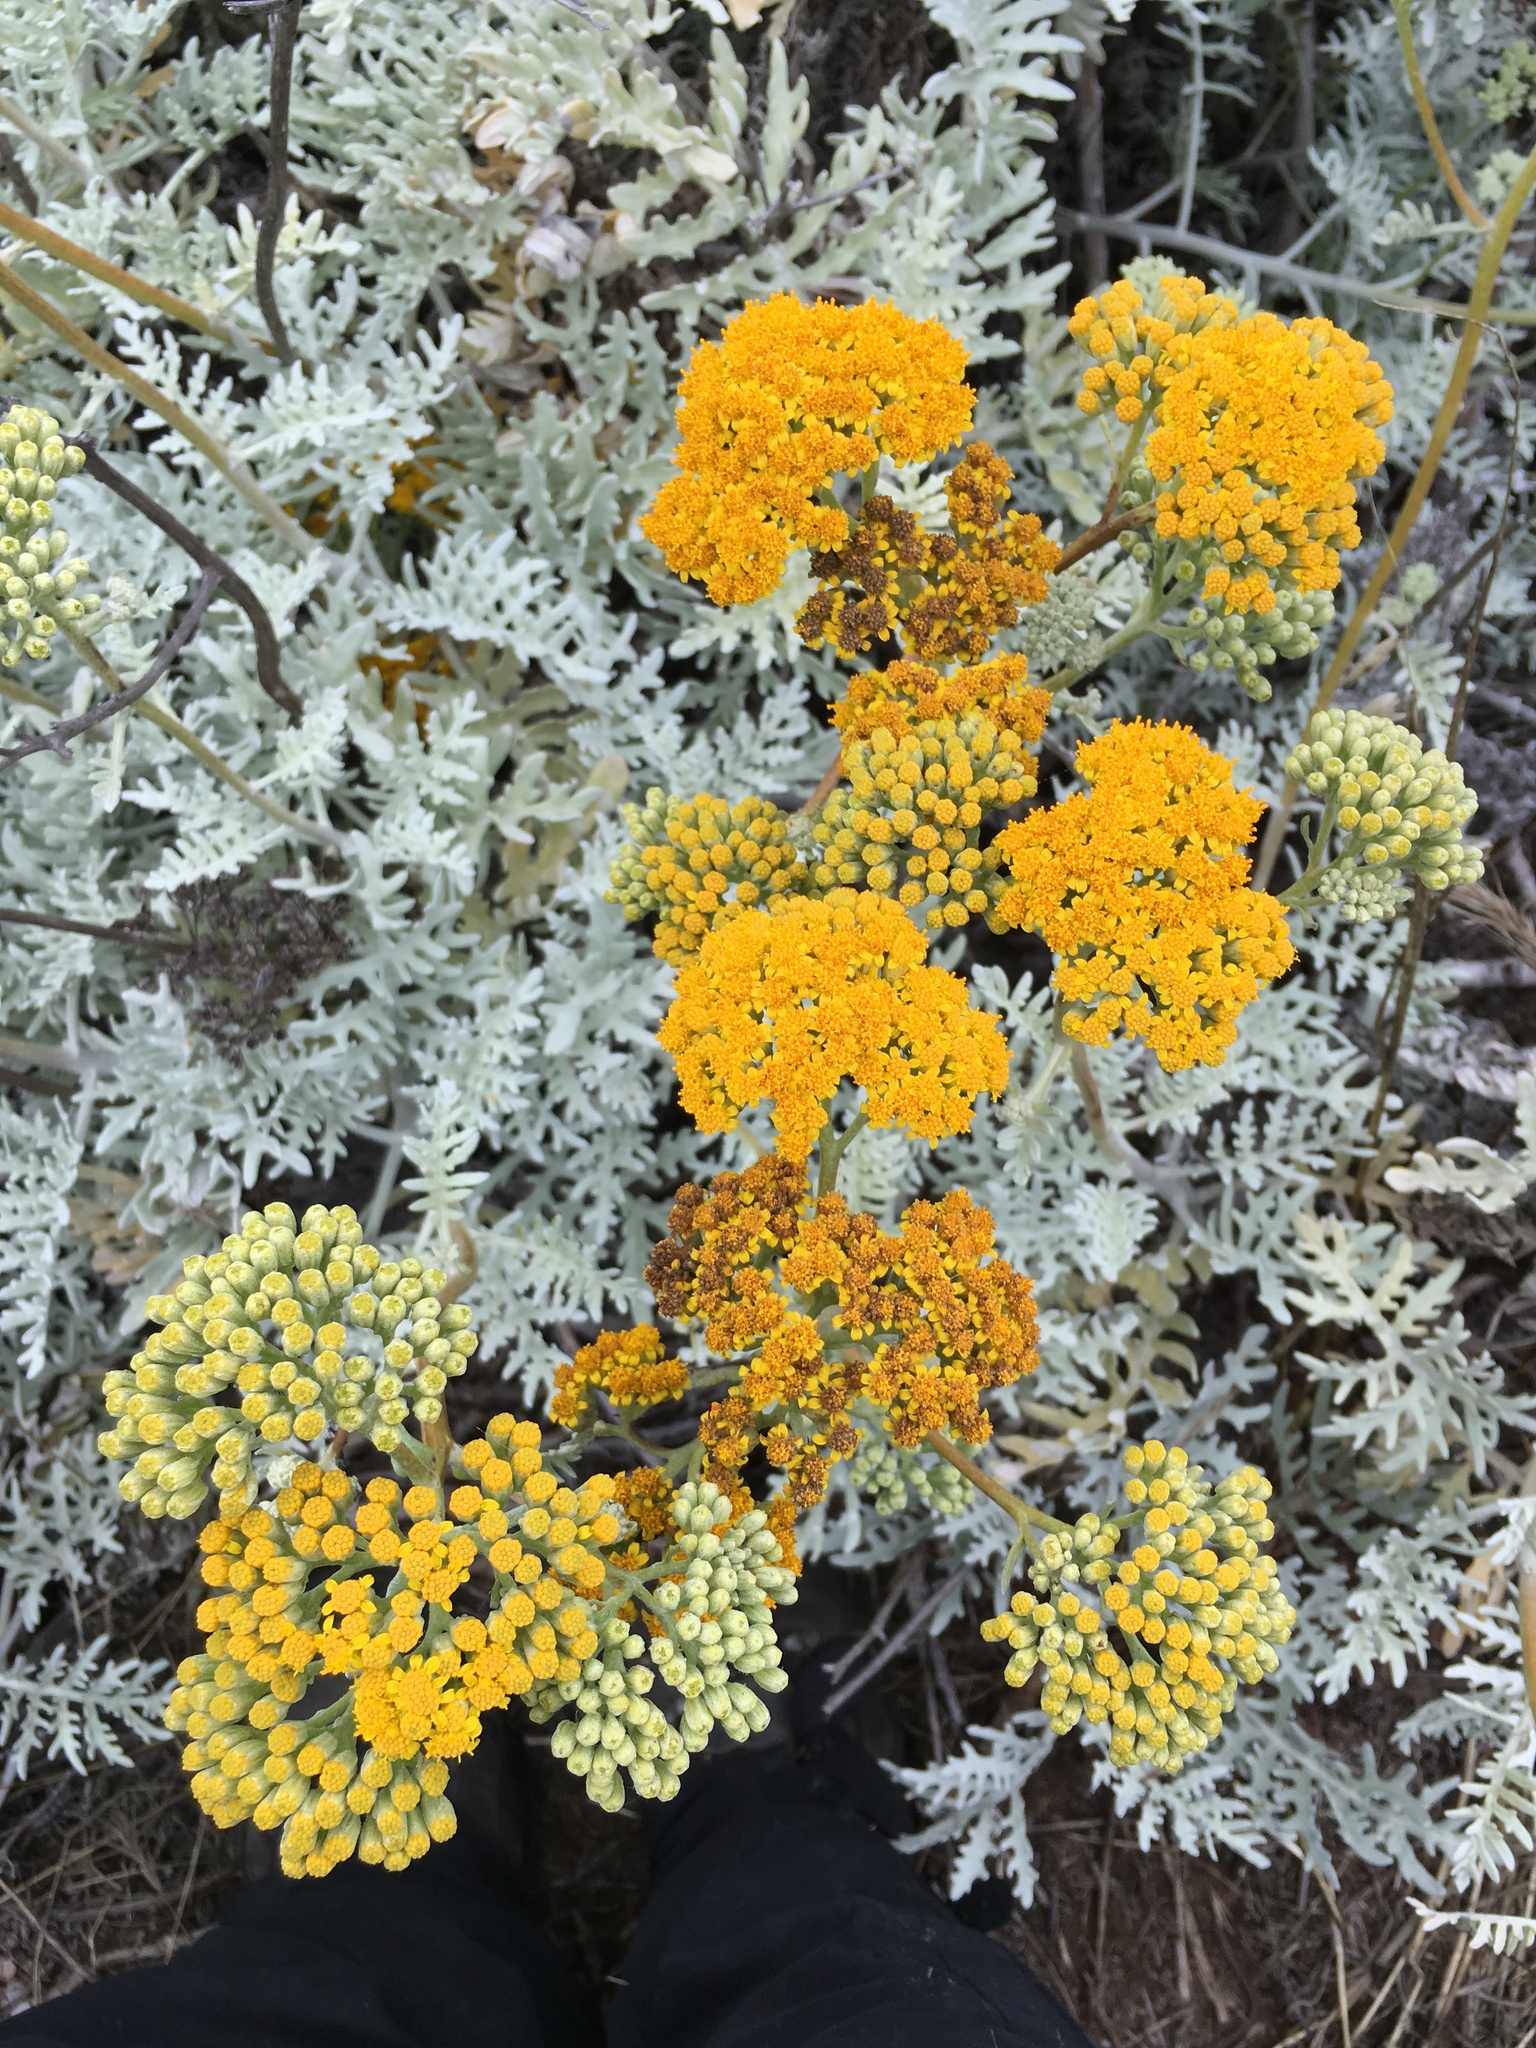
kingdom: Plantae
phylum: Tracheophyta
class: Magnoliopsida
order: Asterales
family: Asteraceae
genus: Constancea
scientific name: Constancea nevinii
